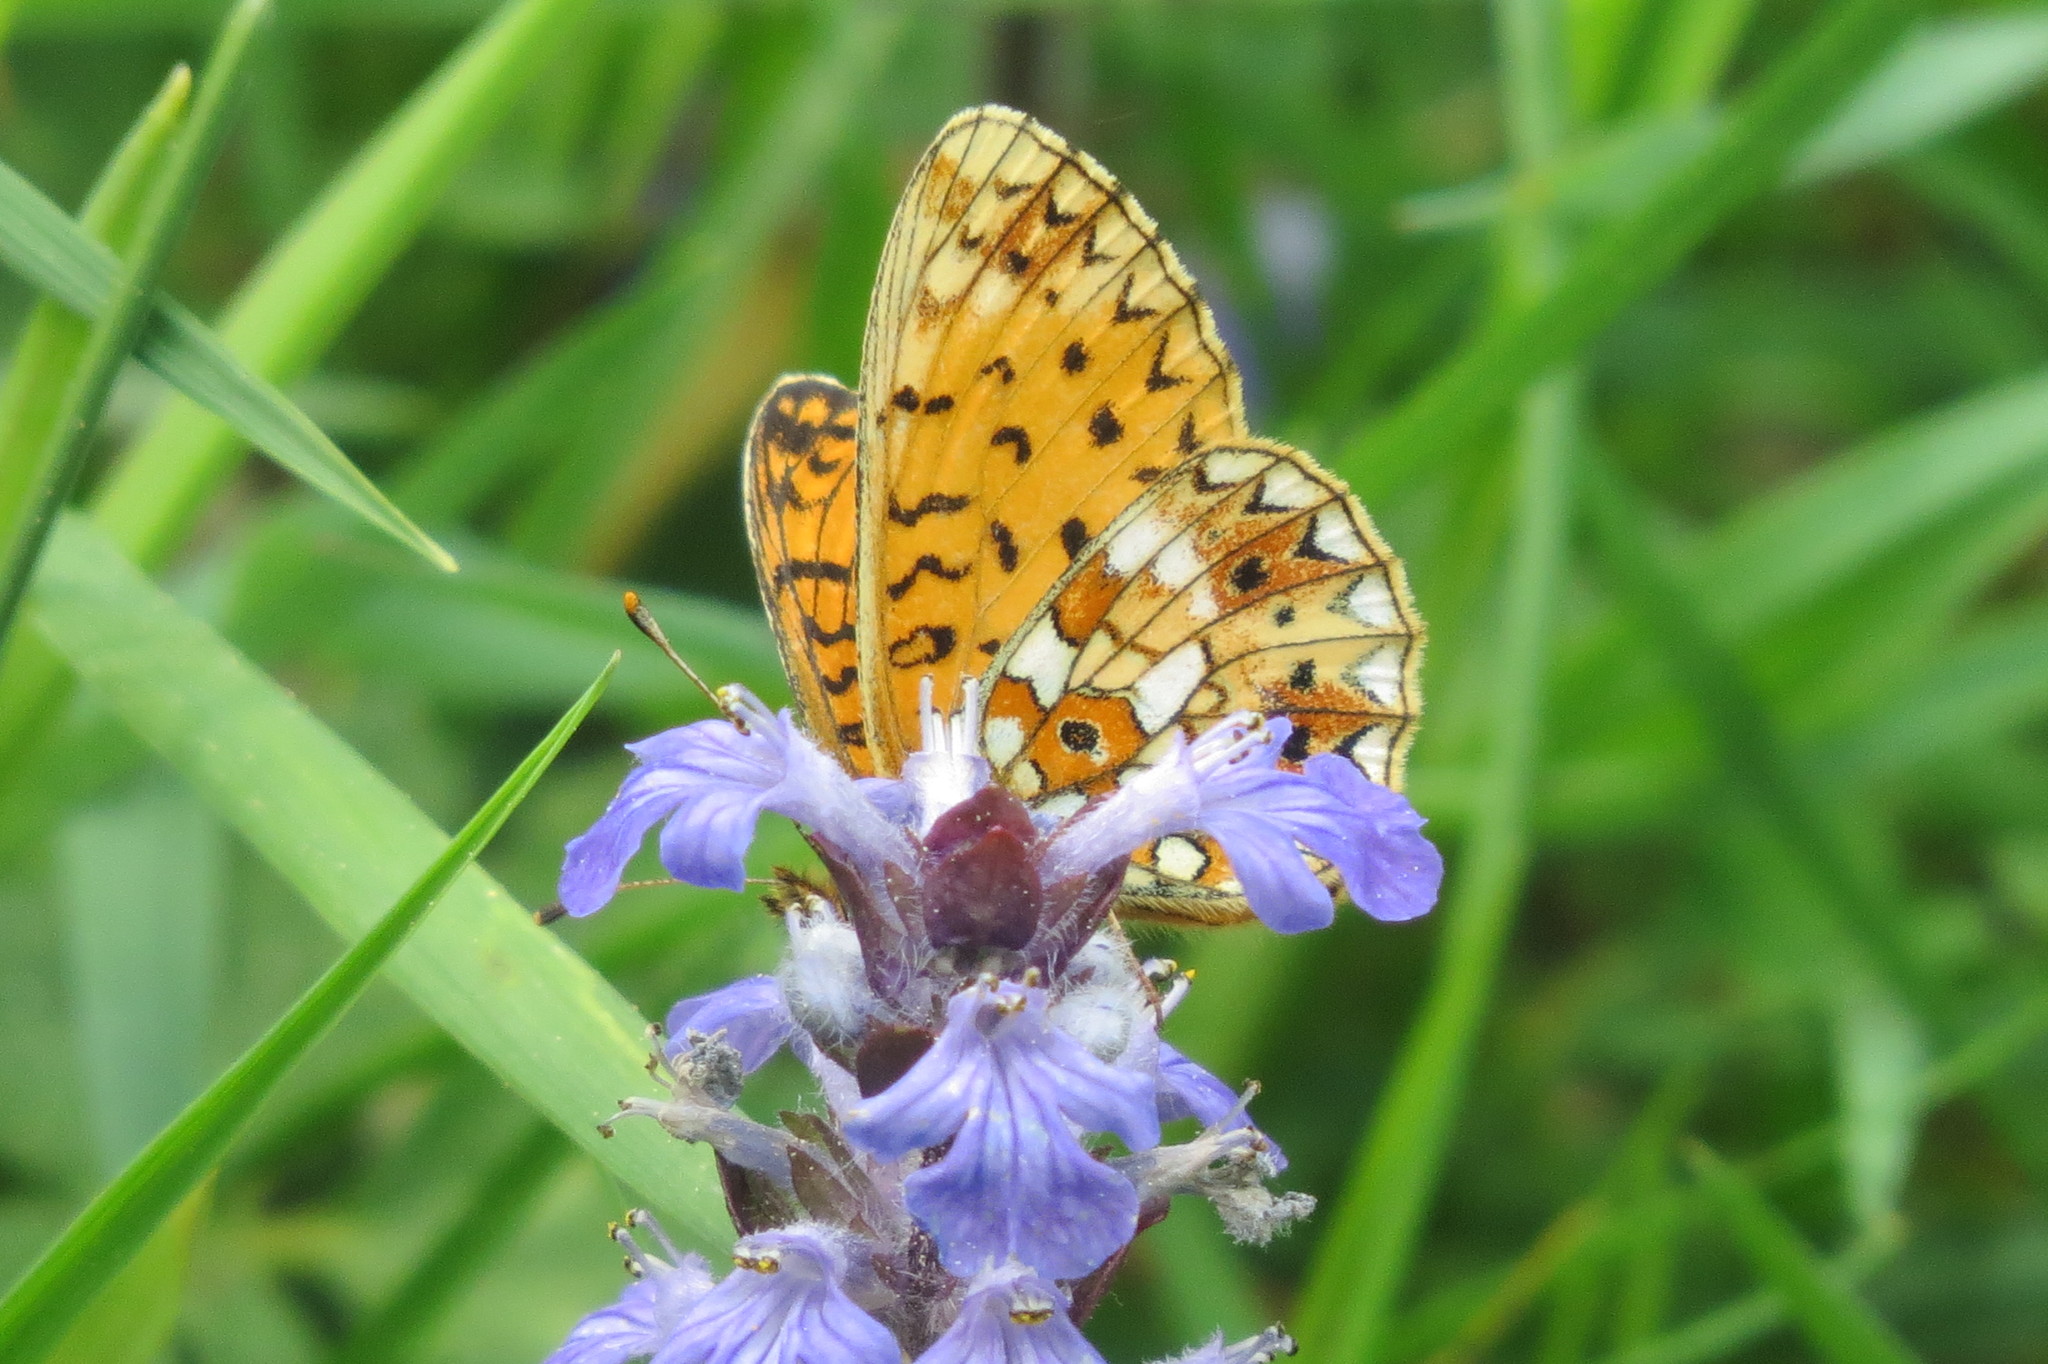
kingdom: Animalia
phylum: Arthropoda
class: Insecta
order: Lepidoptera
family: Nymphalidae
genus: Boloria
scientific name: Boloria selene
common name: Small pearl-bordered fritillary
